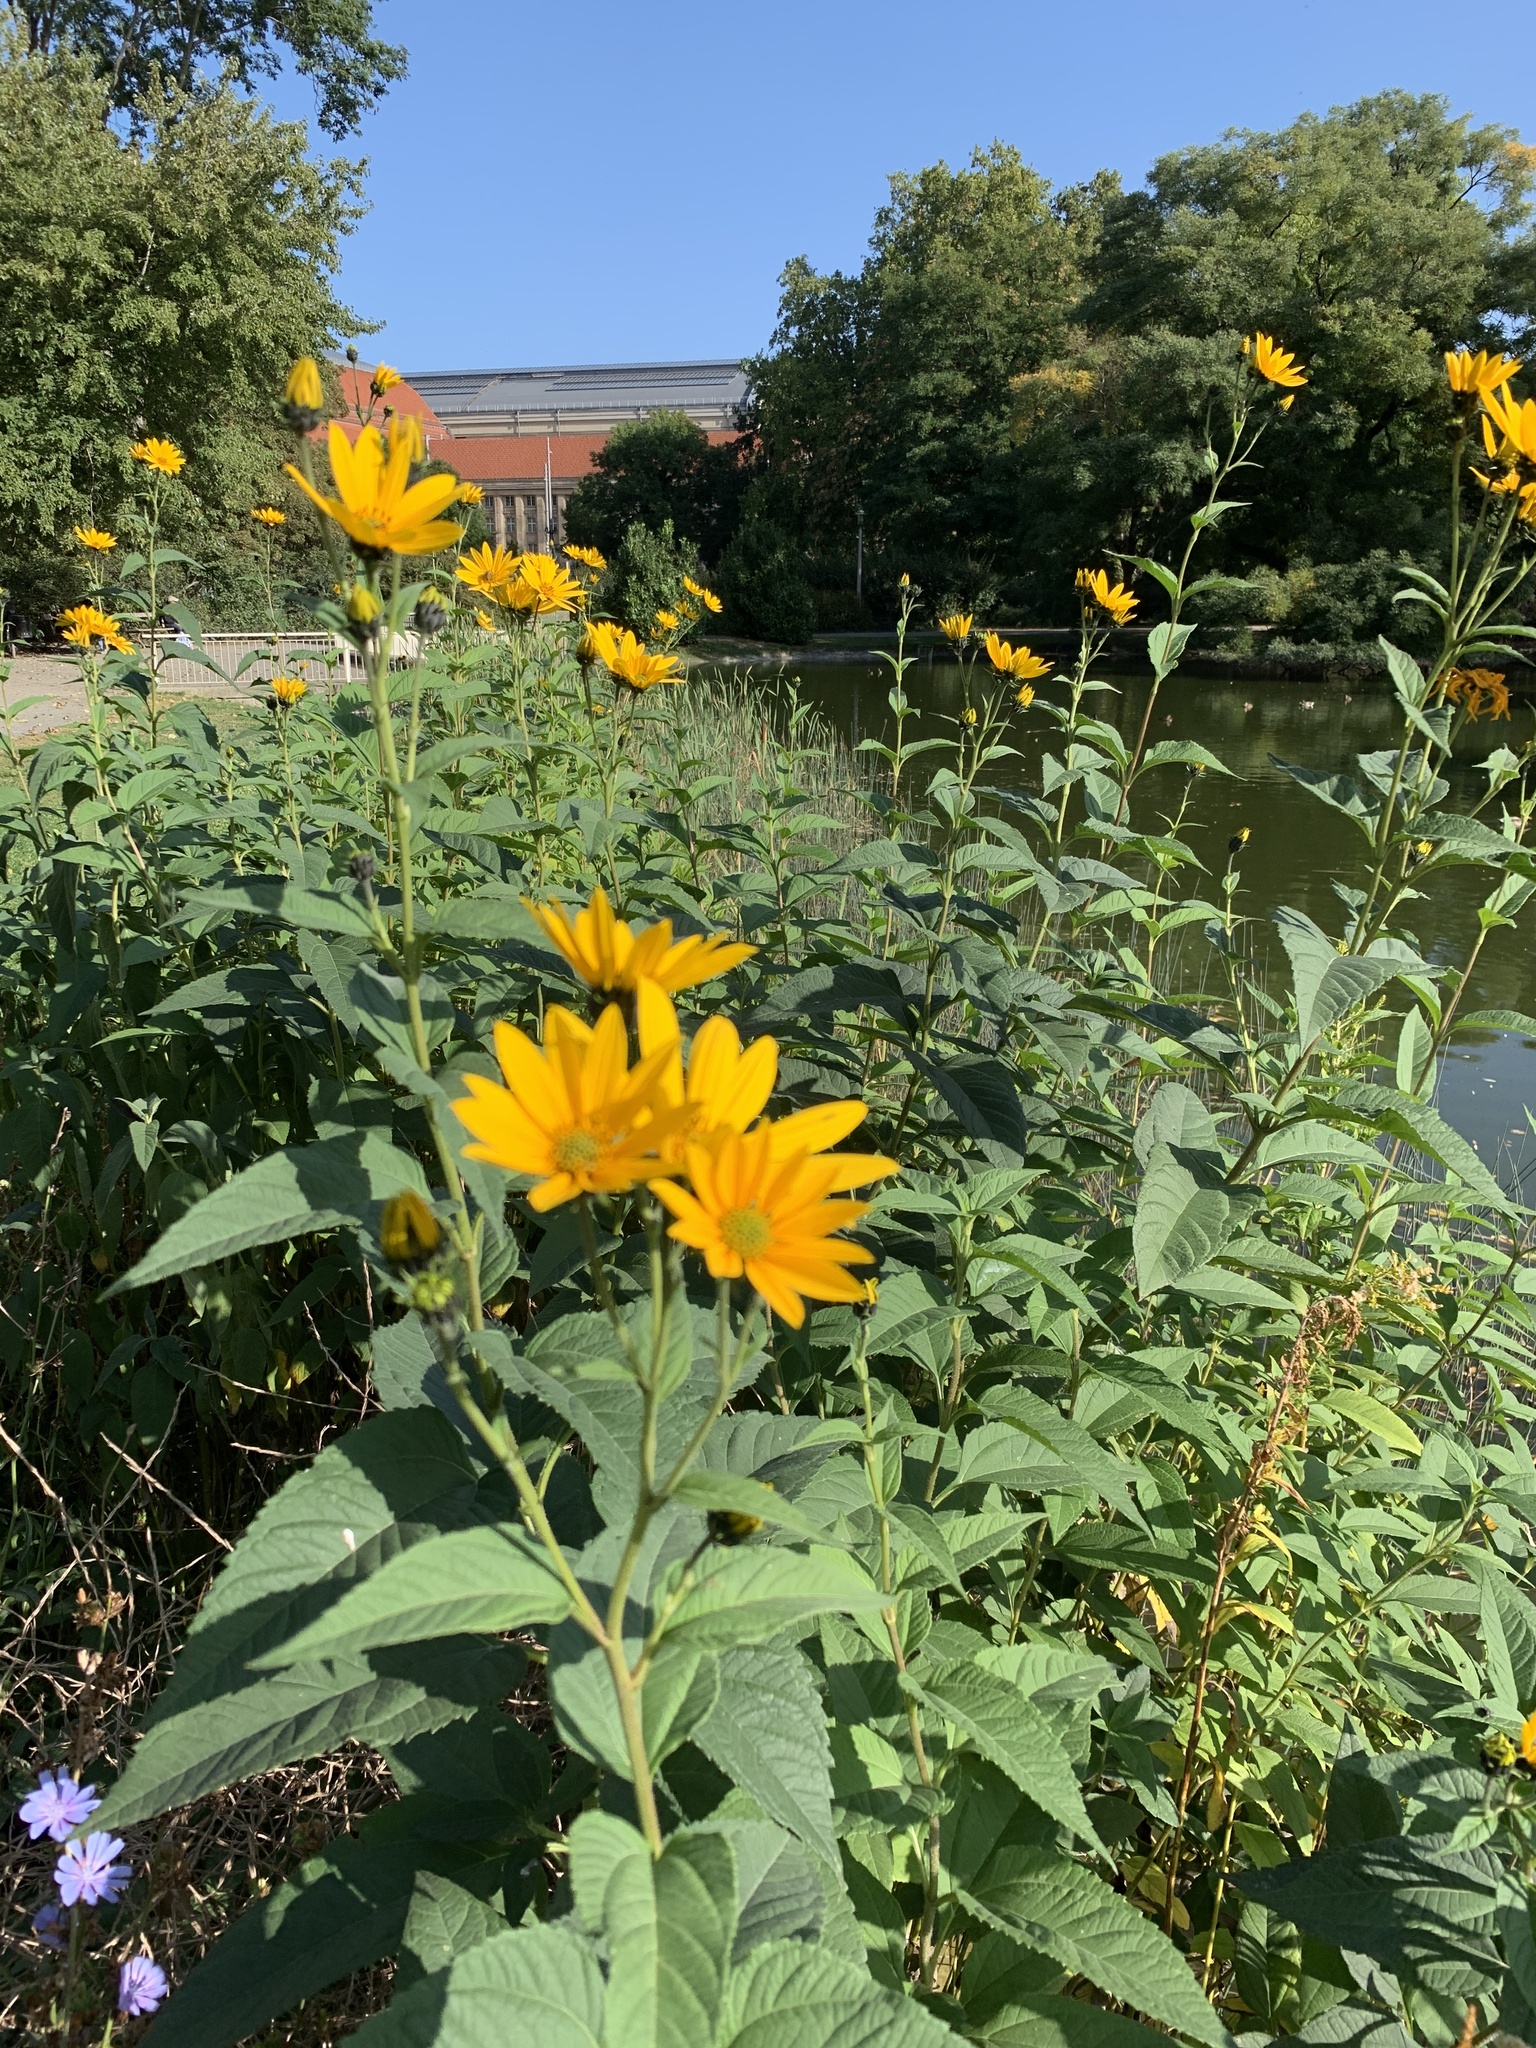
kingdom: Plantae
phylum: Tracheophyta
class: Magnoliopsida
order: Asterales
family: Asteraceae
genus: Helianthus
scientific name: Helianthus tuberosus
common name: Jerusalem artichoke
